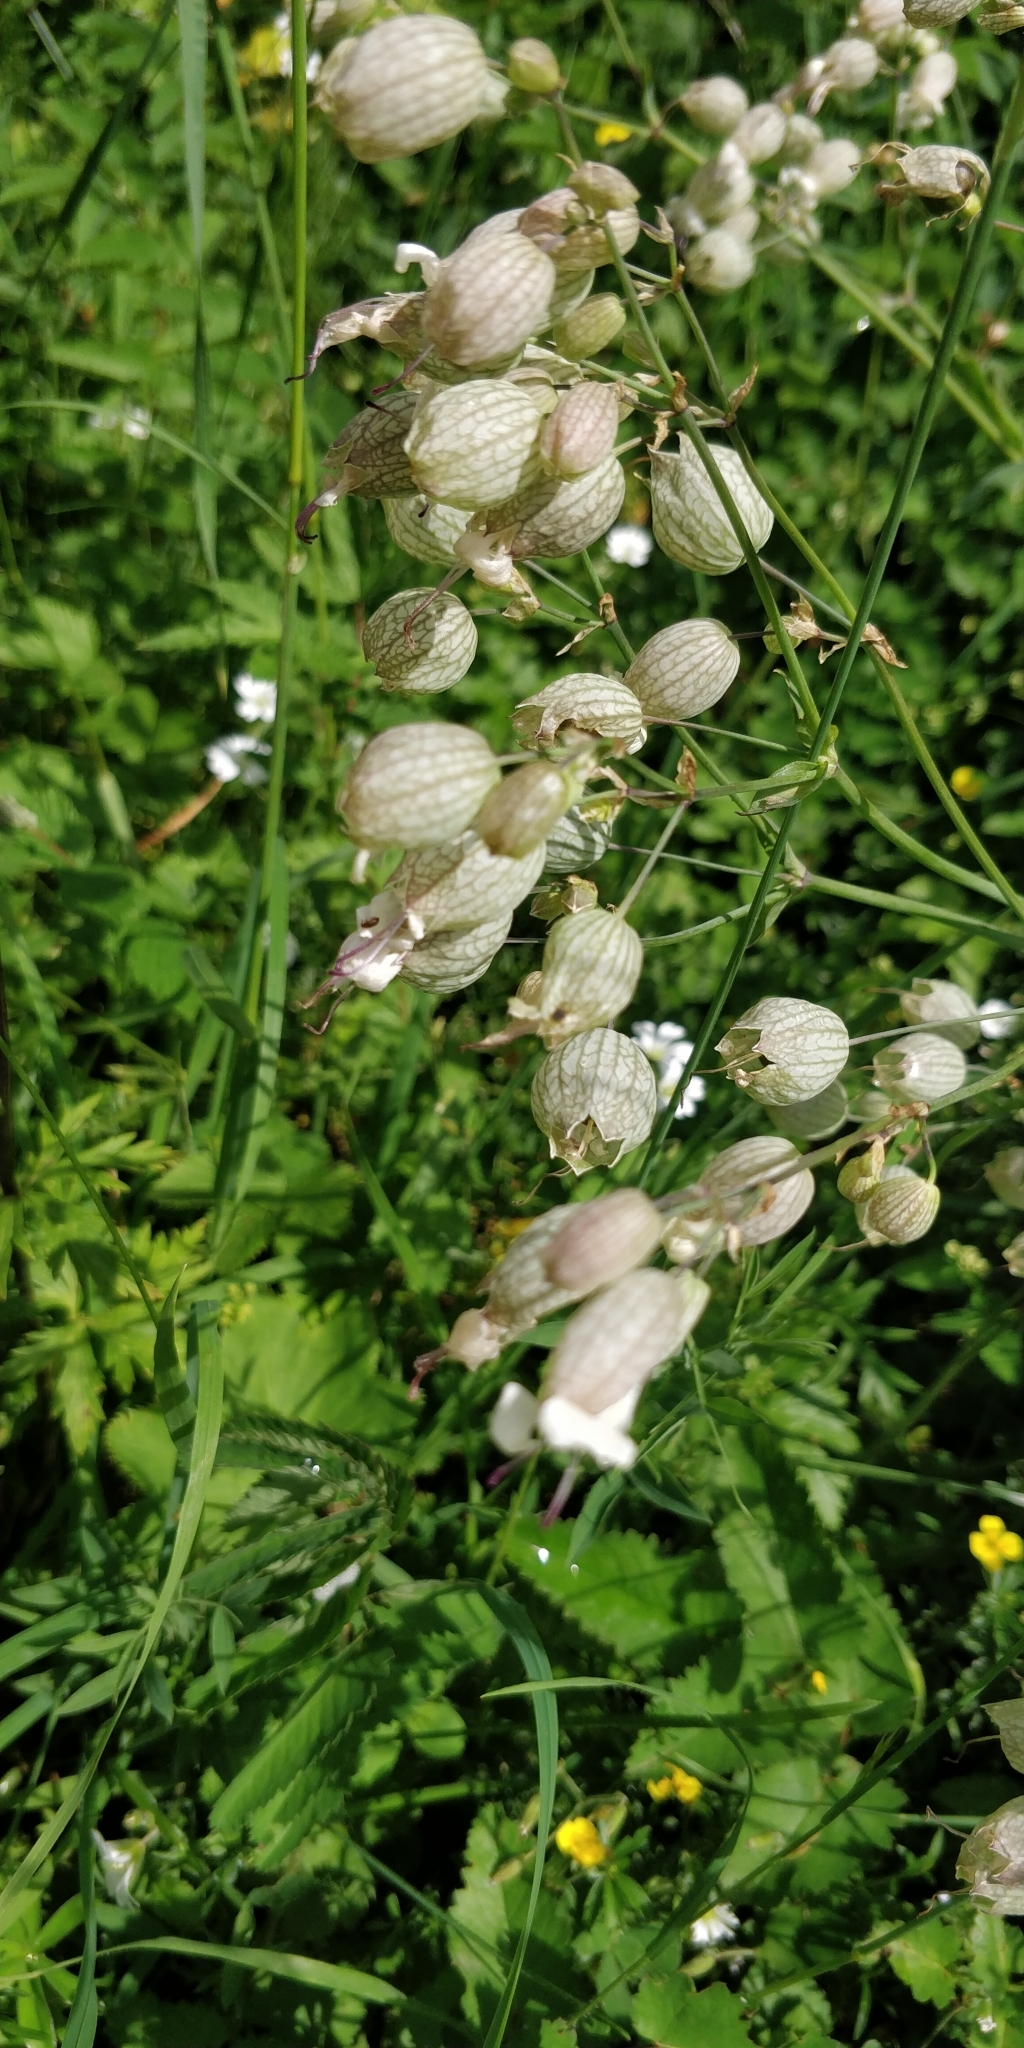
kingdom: Plantae
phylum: Tracheophyta
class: Magnoliopsida
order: Caryophyllales
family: Caryophyllaceae
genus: Silene
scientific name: Silene vulgaris
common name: Bladder campion
